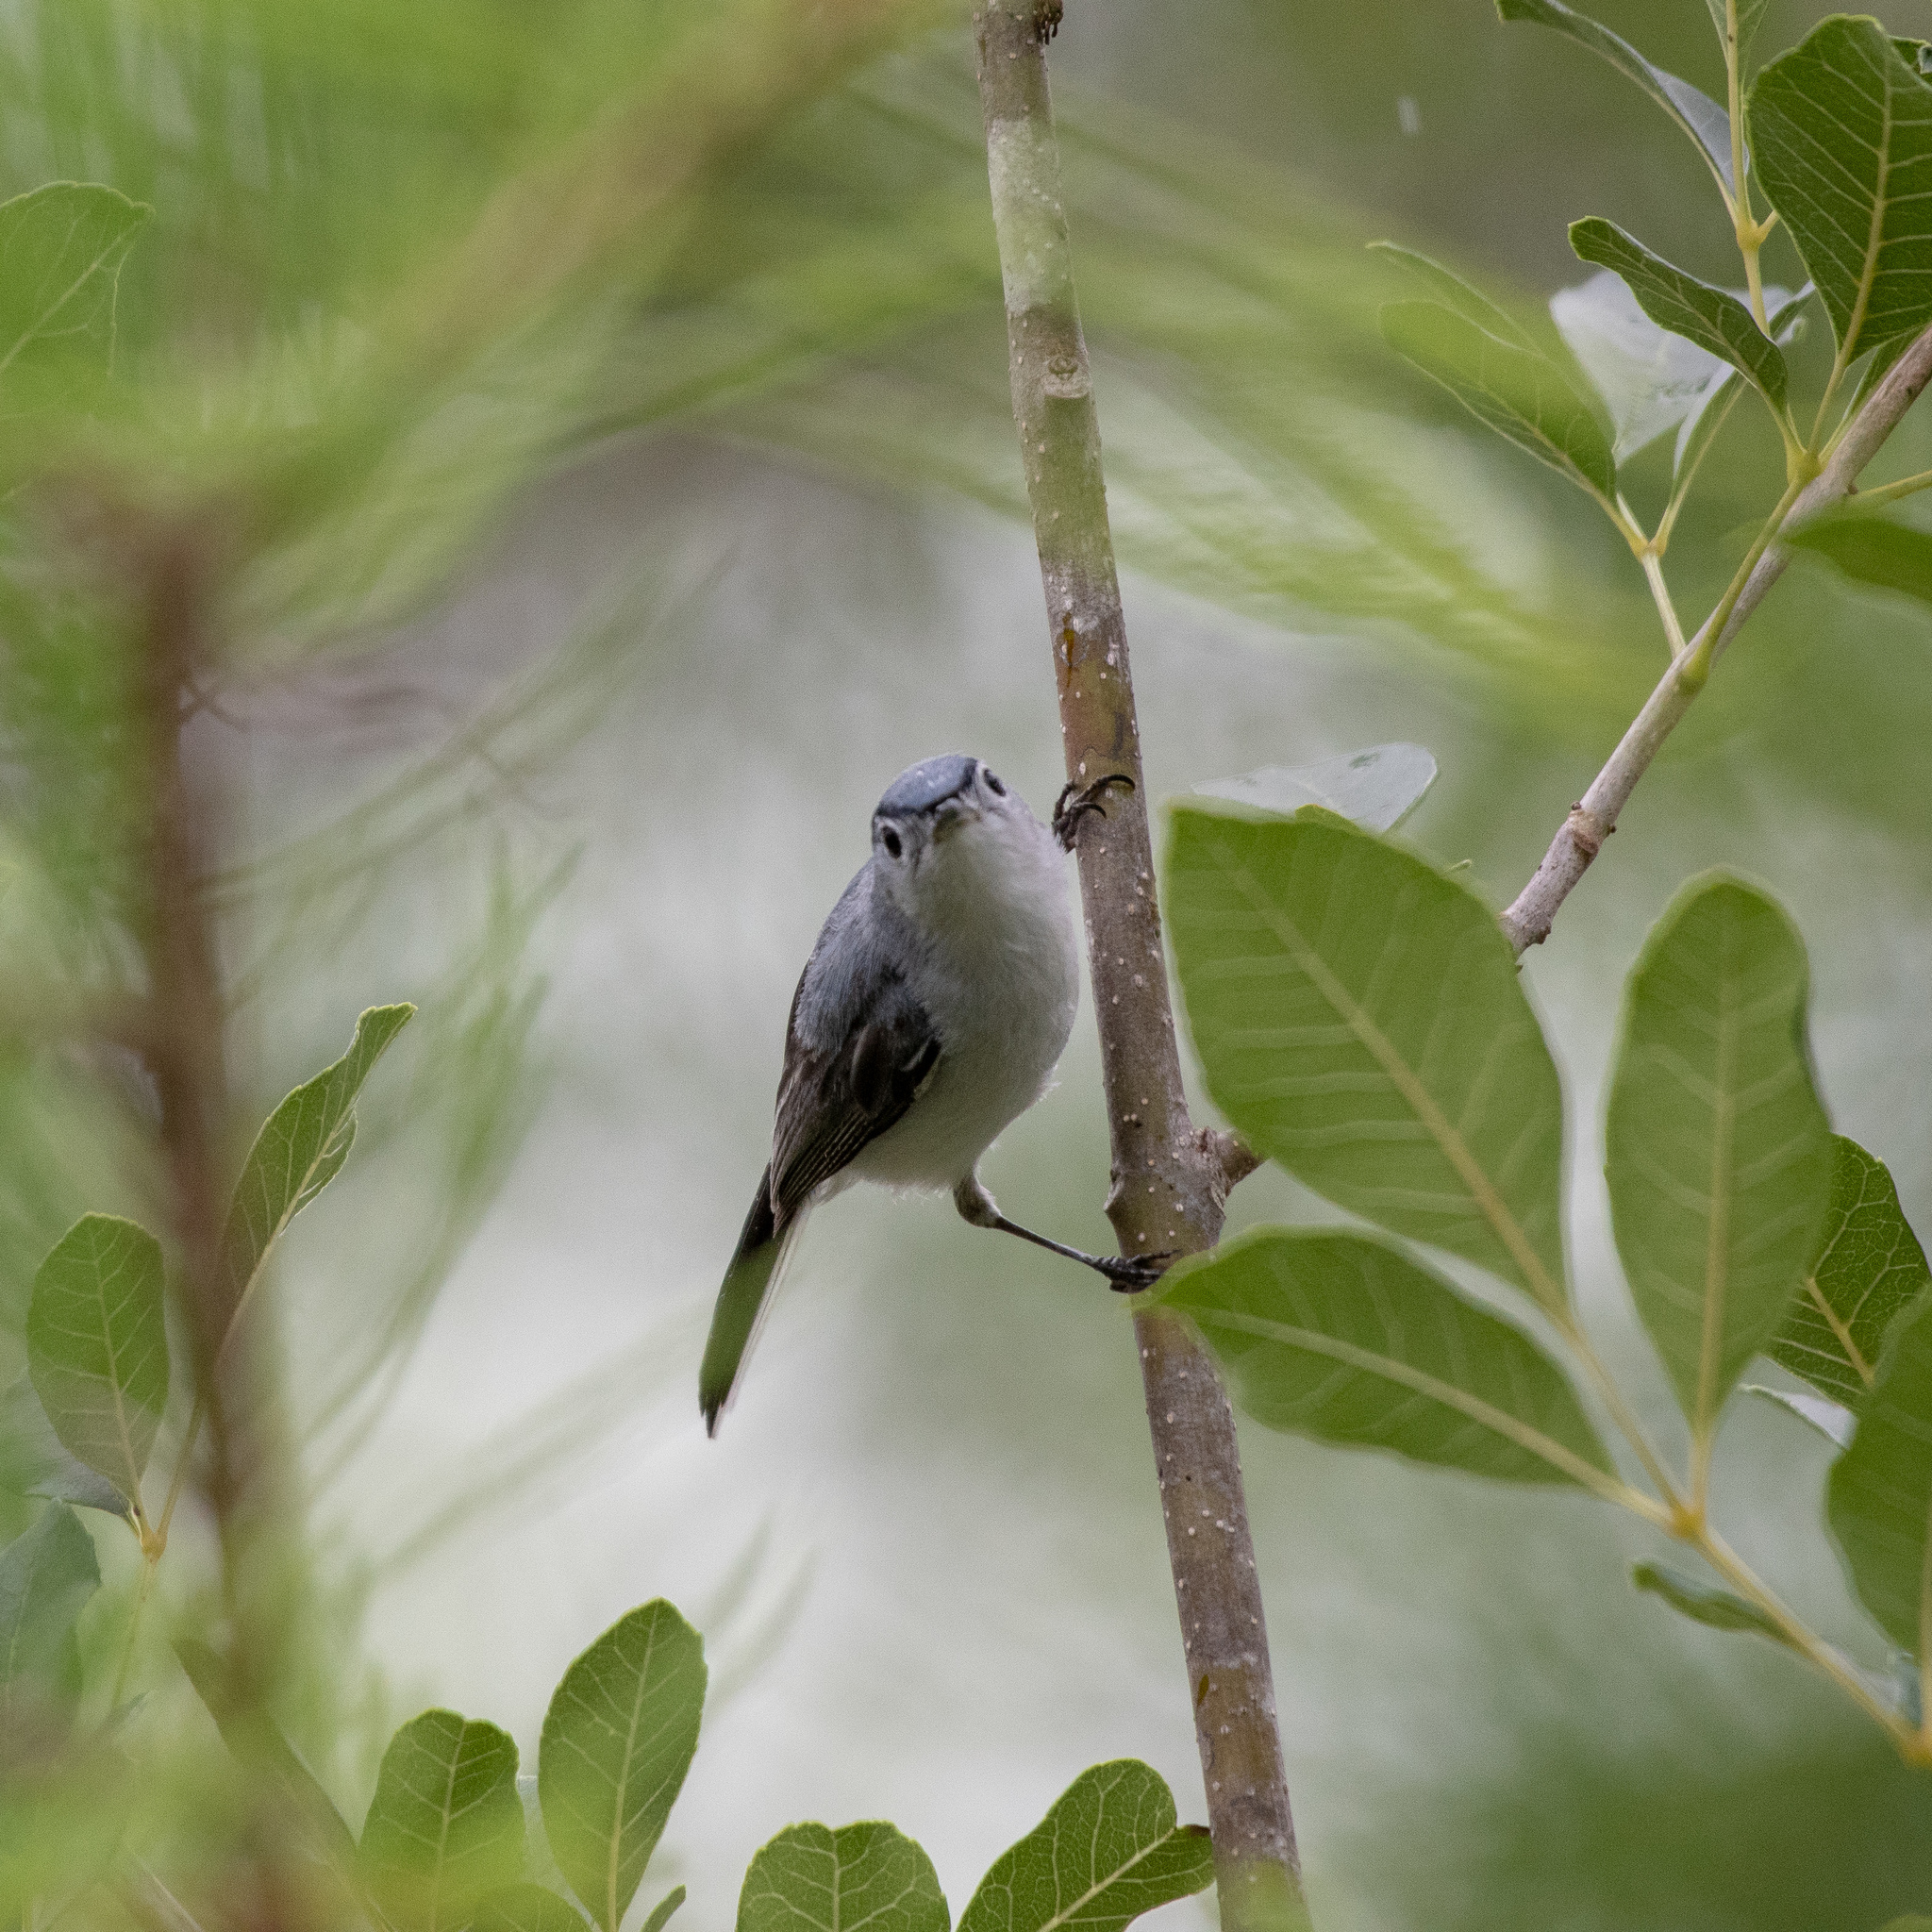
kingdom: Animalia
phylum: Chordata
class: Aves
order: Passeriformes
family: Polioptilidae
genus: Polioptila
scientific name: Polioptila caerulea
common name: Blue-gray gnatcatcher
